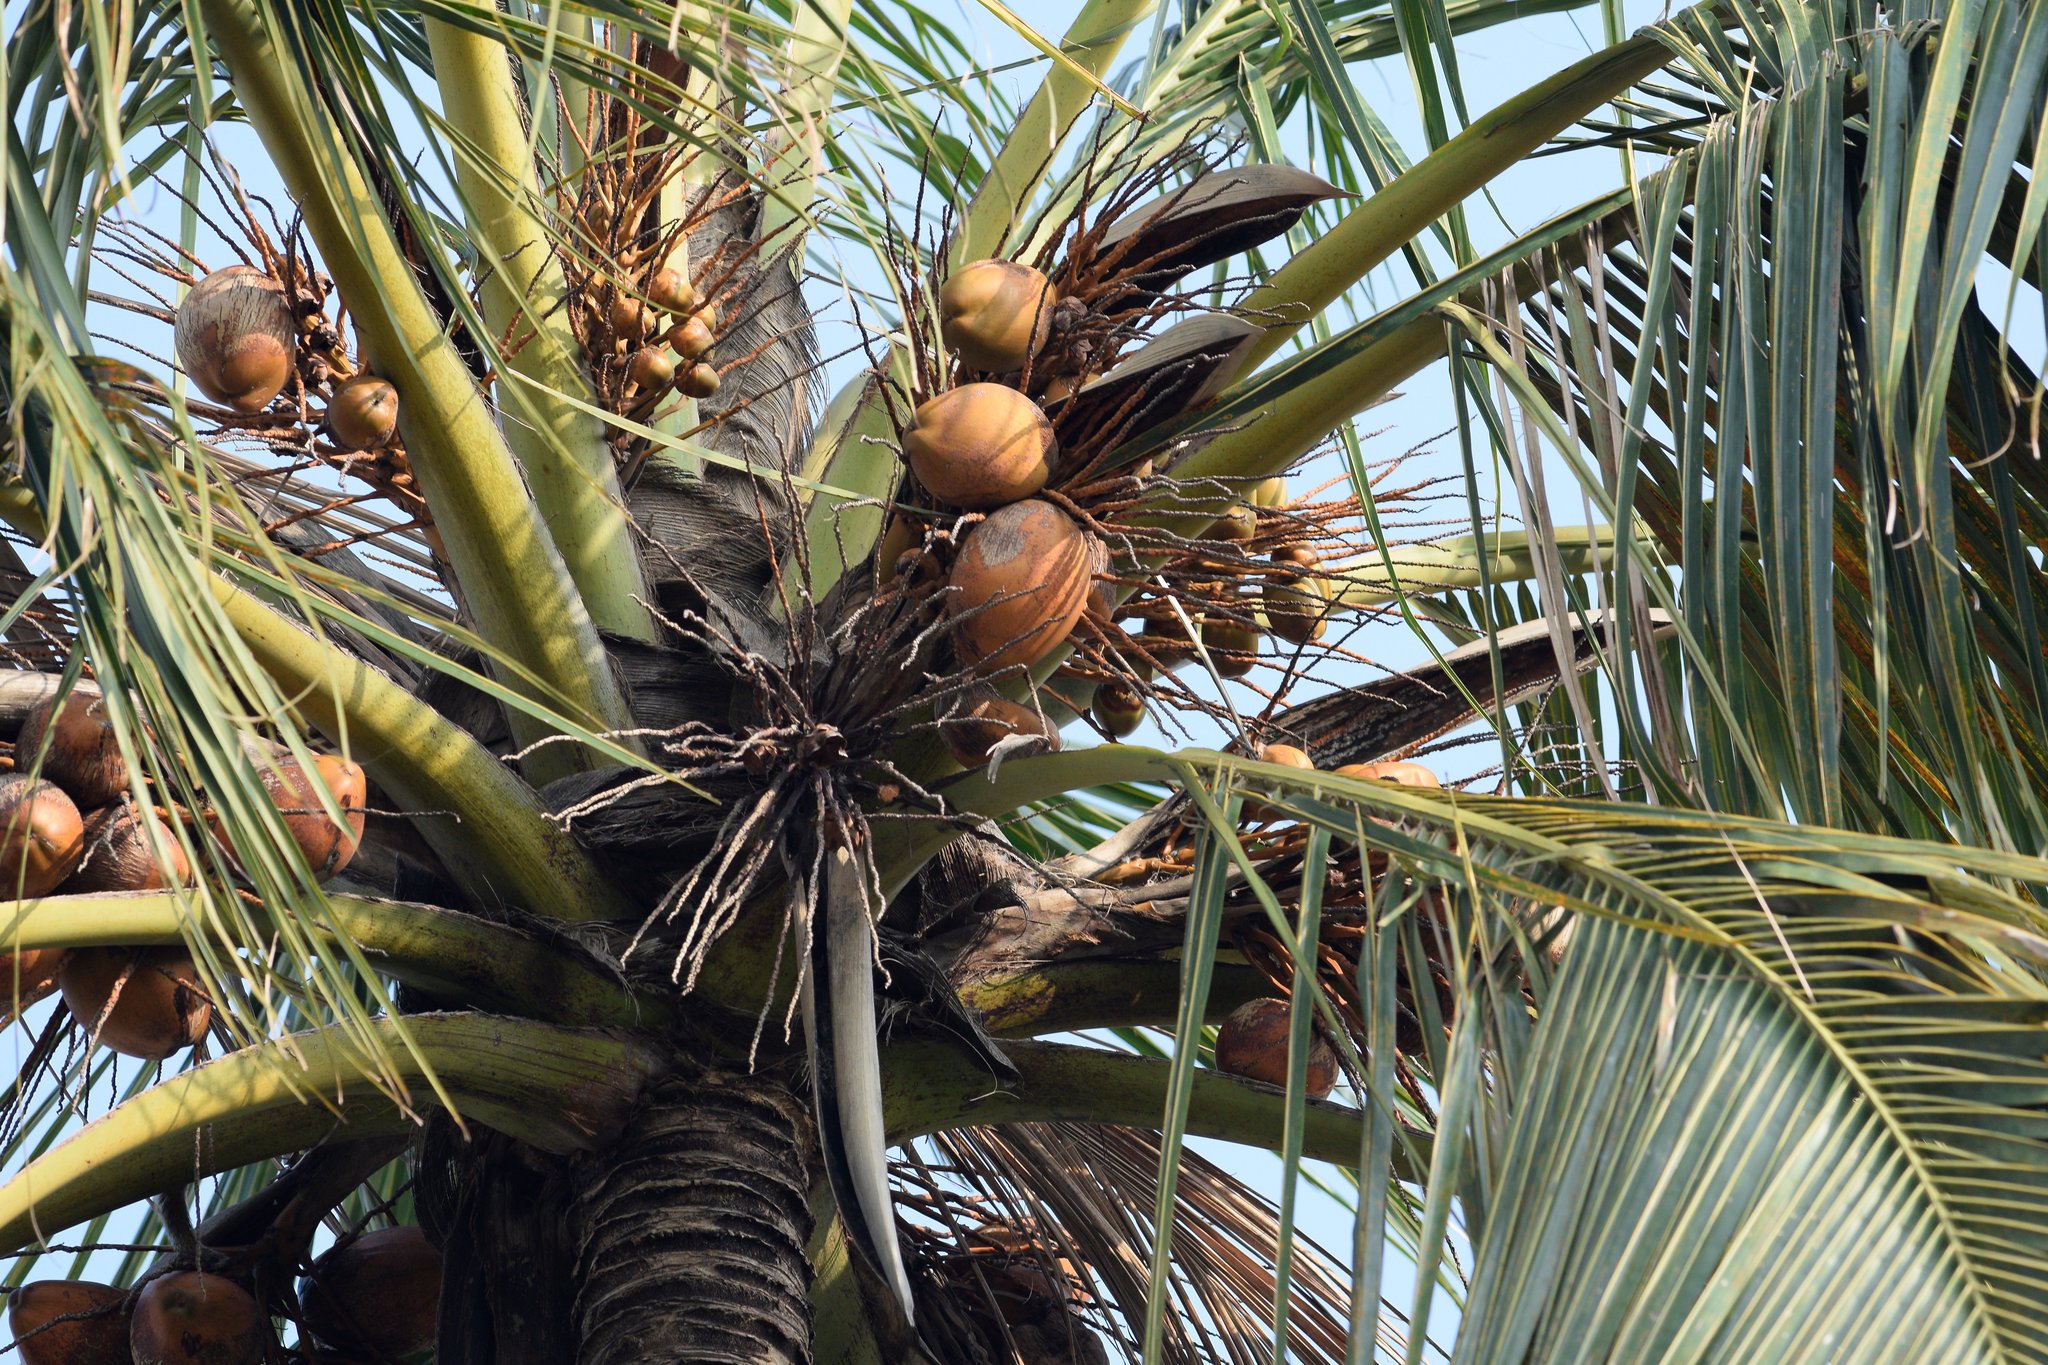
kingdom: Plantae
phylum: Tracheophyta
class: Liliopsida
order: Arecales
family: Arecaceae
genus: Cocos
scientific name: Cocos nucifera
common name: Coconut palm
